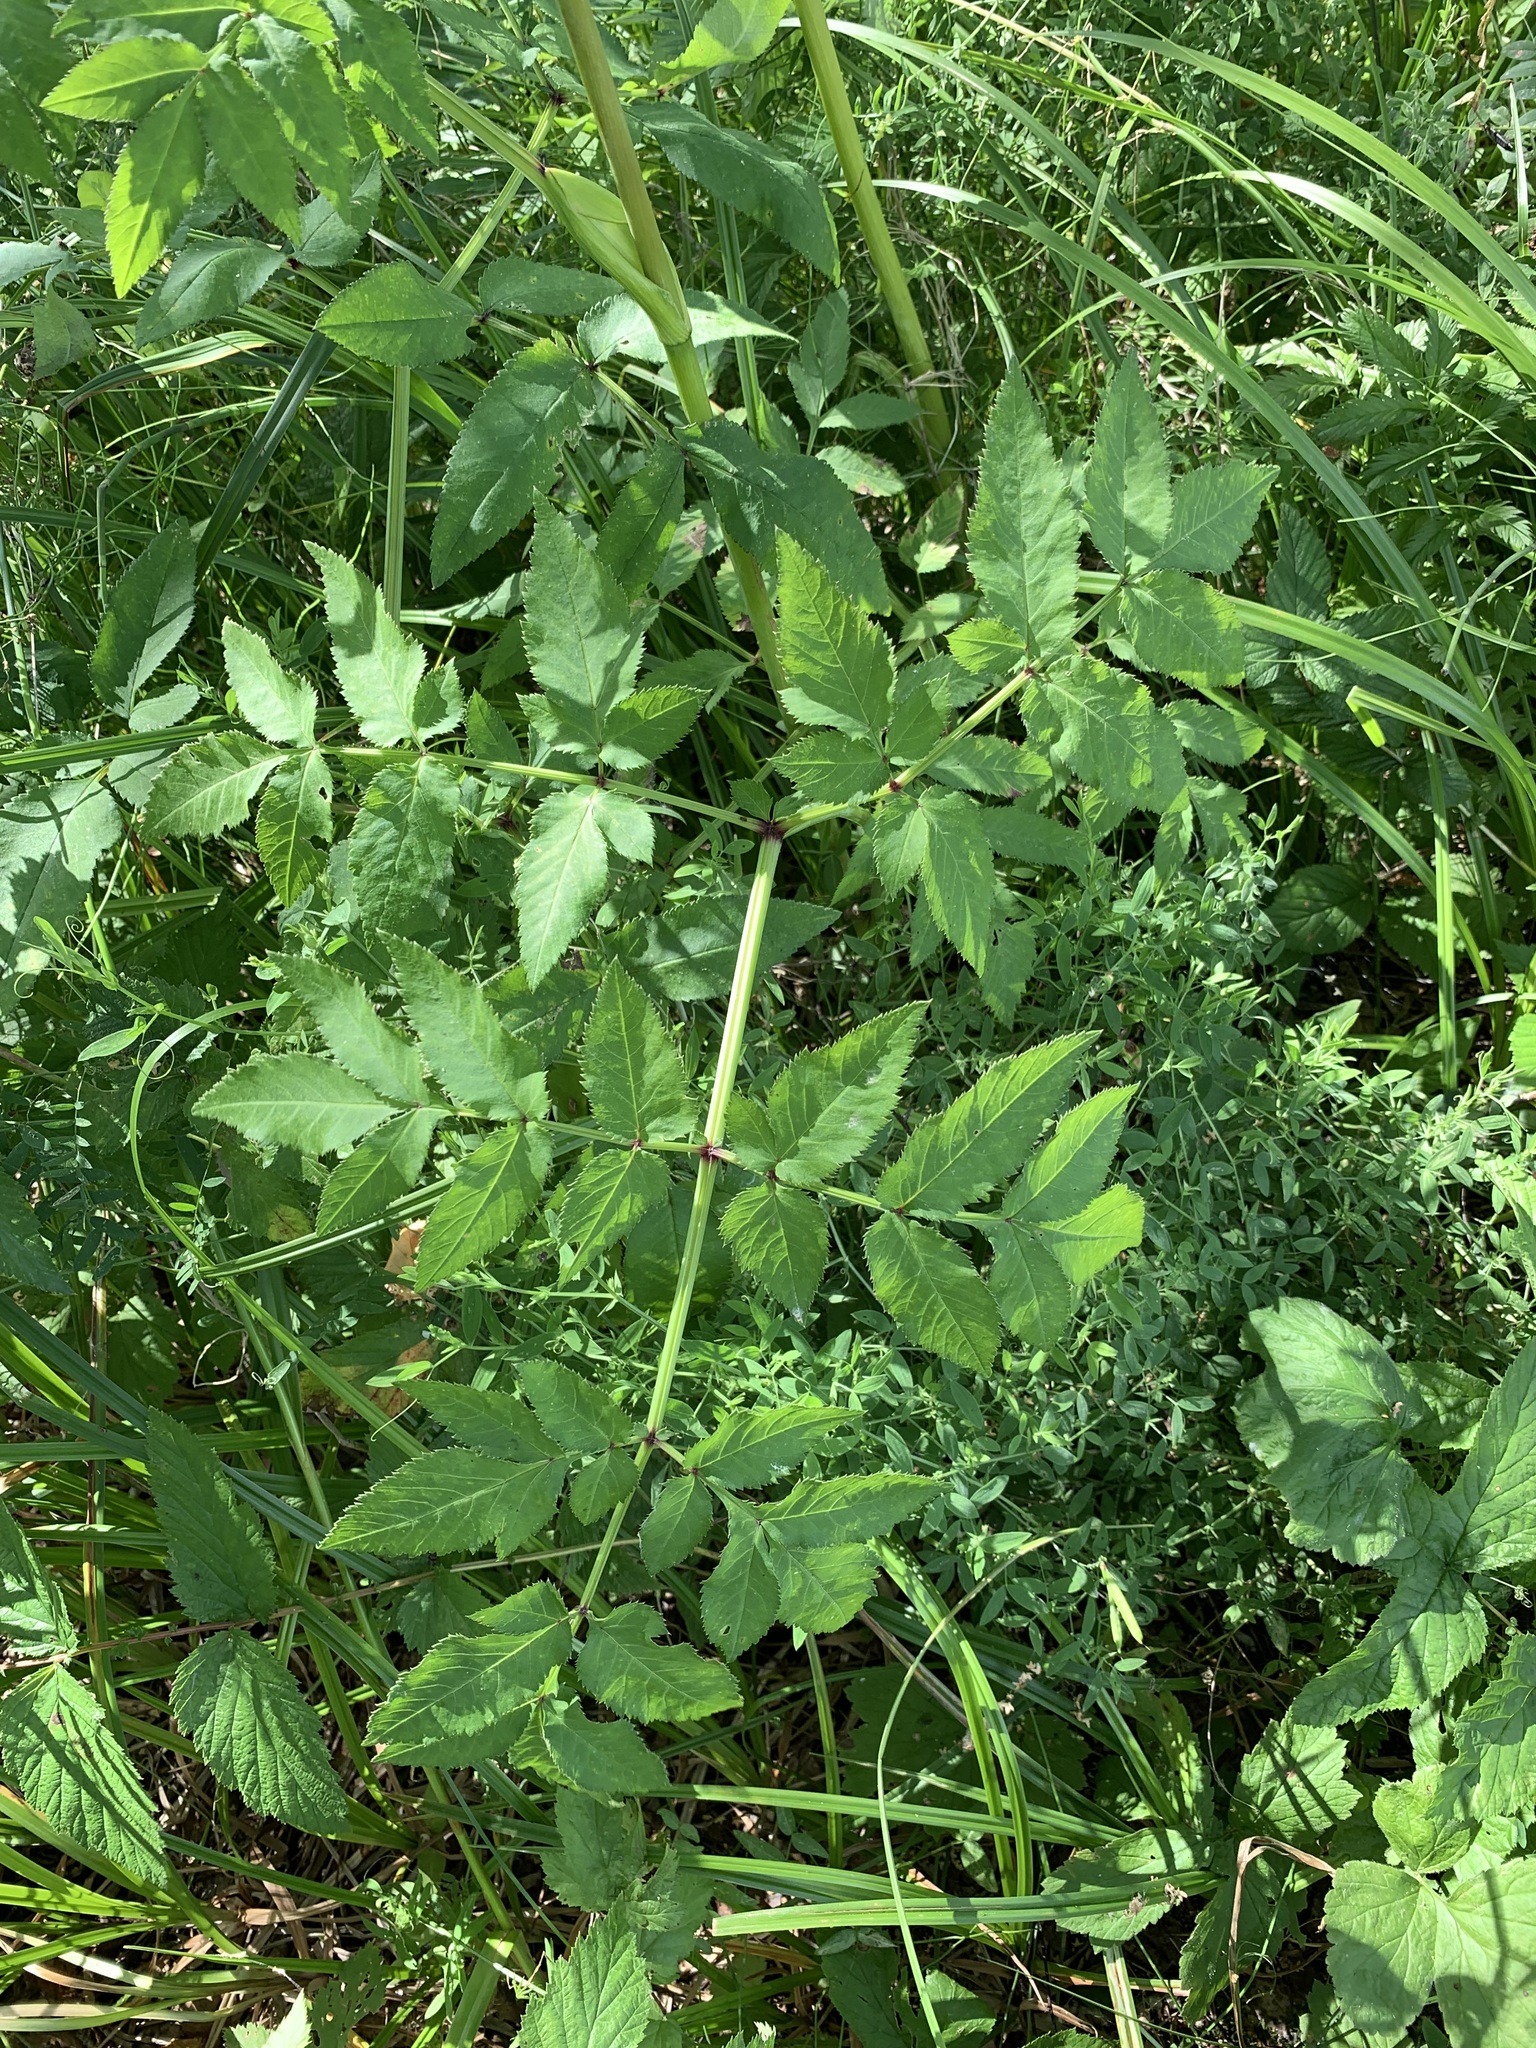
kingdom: Plantae
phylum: Tracheophyta
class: Magnoliopsida
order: Apiales
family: Apiaceae
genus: Angelica
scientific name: Angelica sylvestris
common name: Wild angelica
